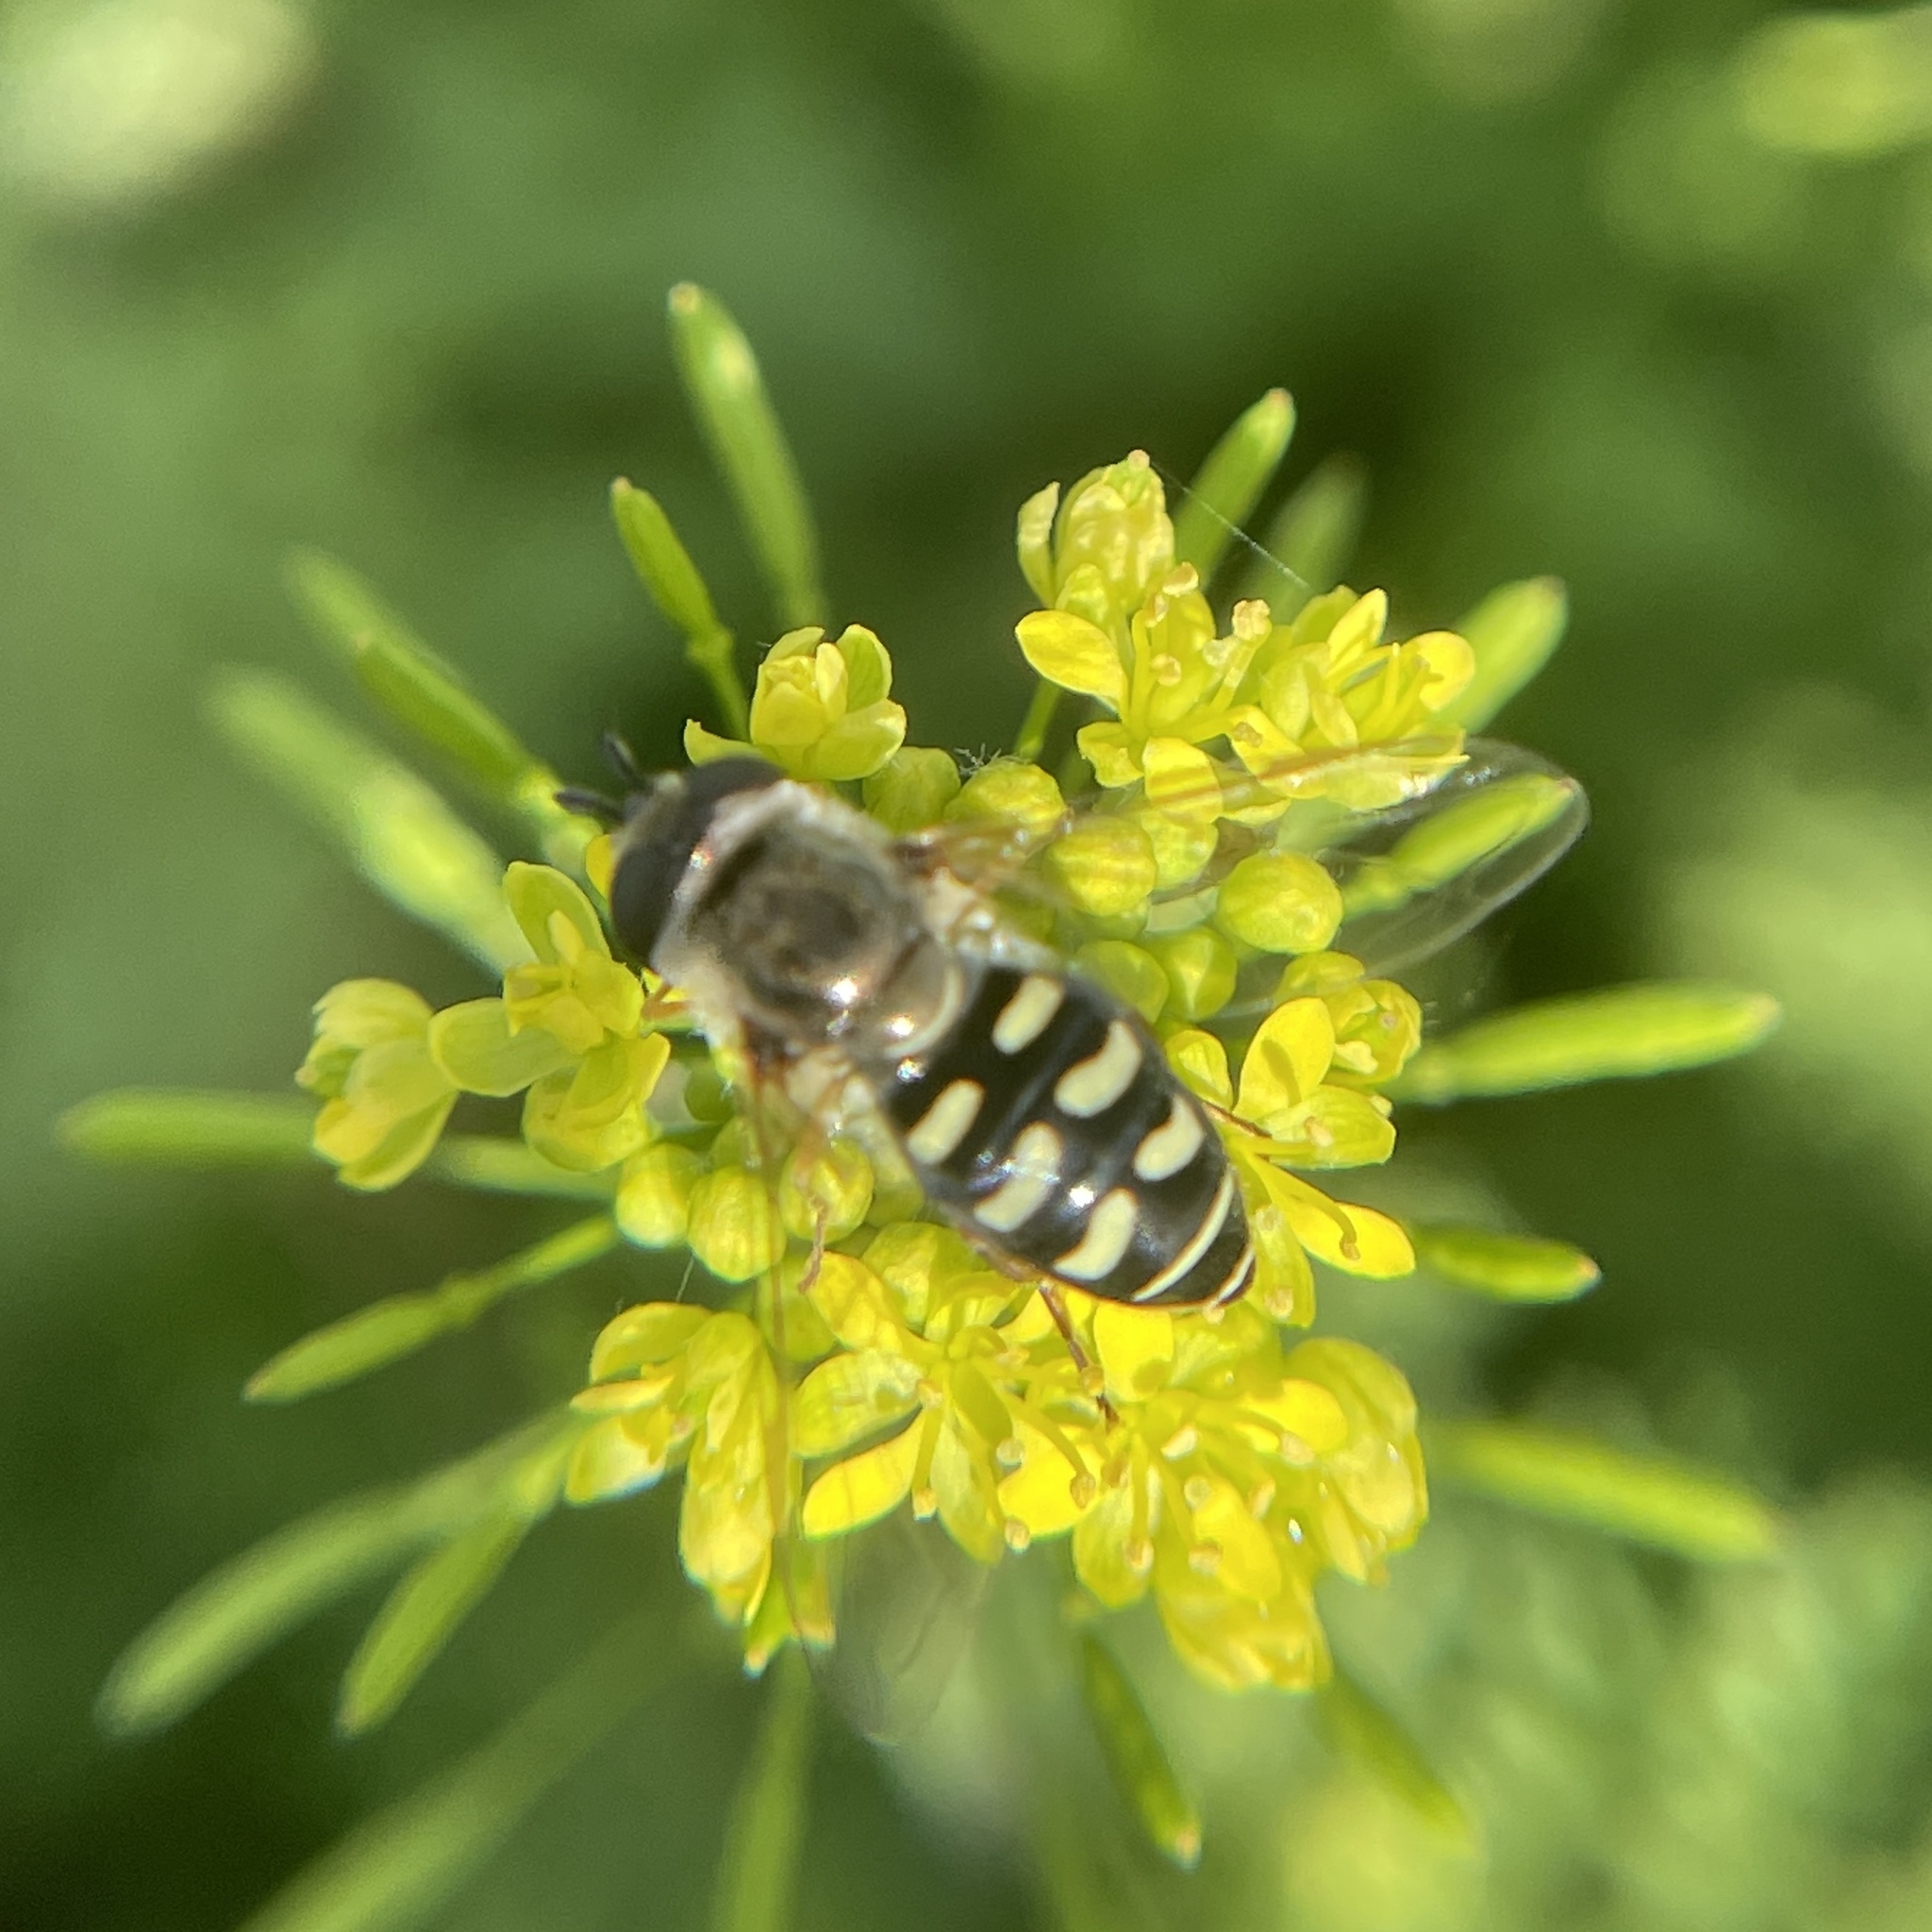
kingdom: Animalia
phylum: Arthropoda
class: Insecta
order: Diptera
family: Syrphidae
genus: Eupeodes
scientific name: Eupeodes volucris
